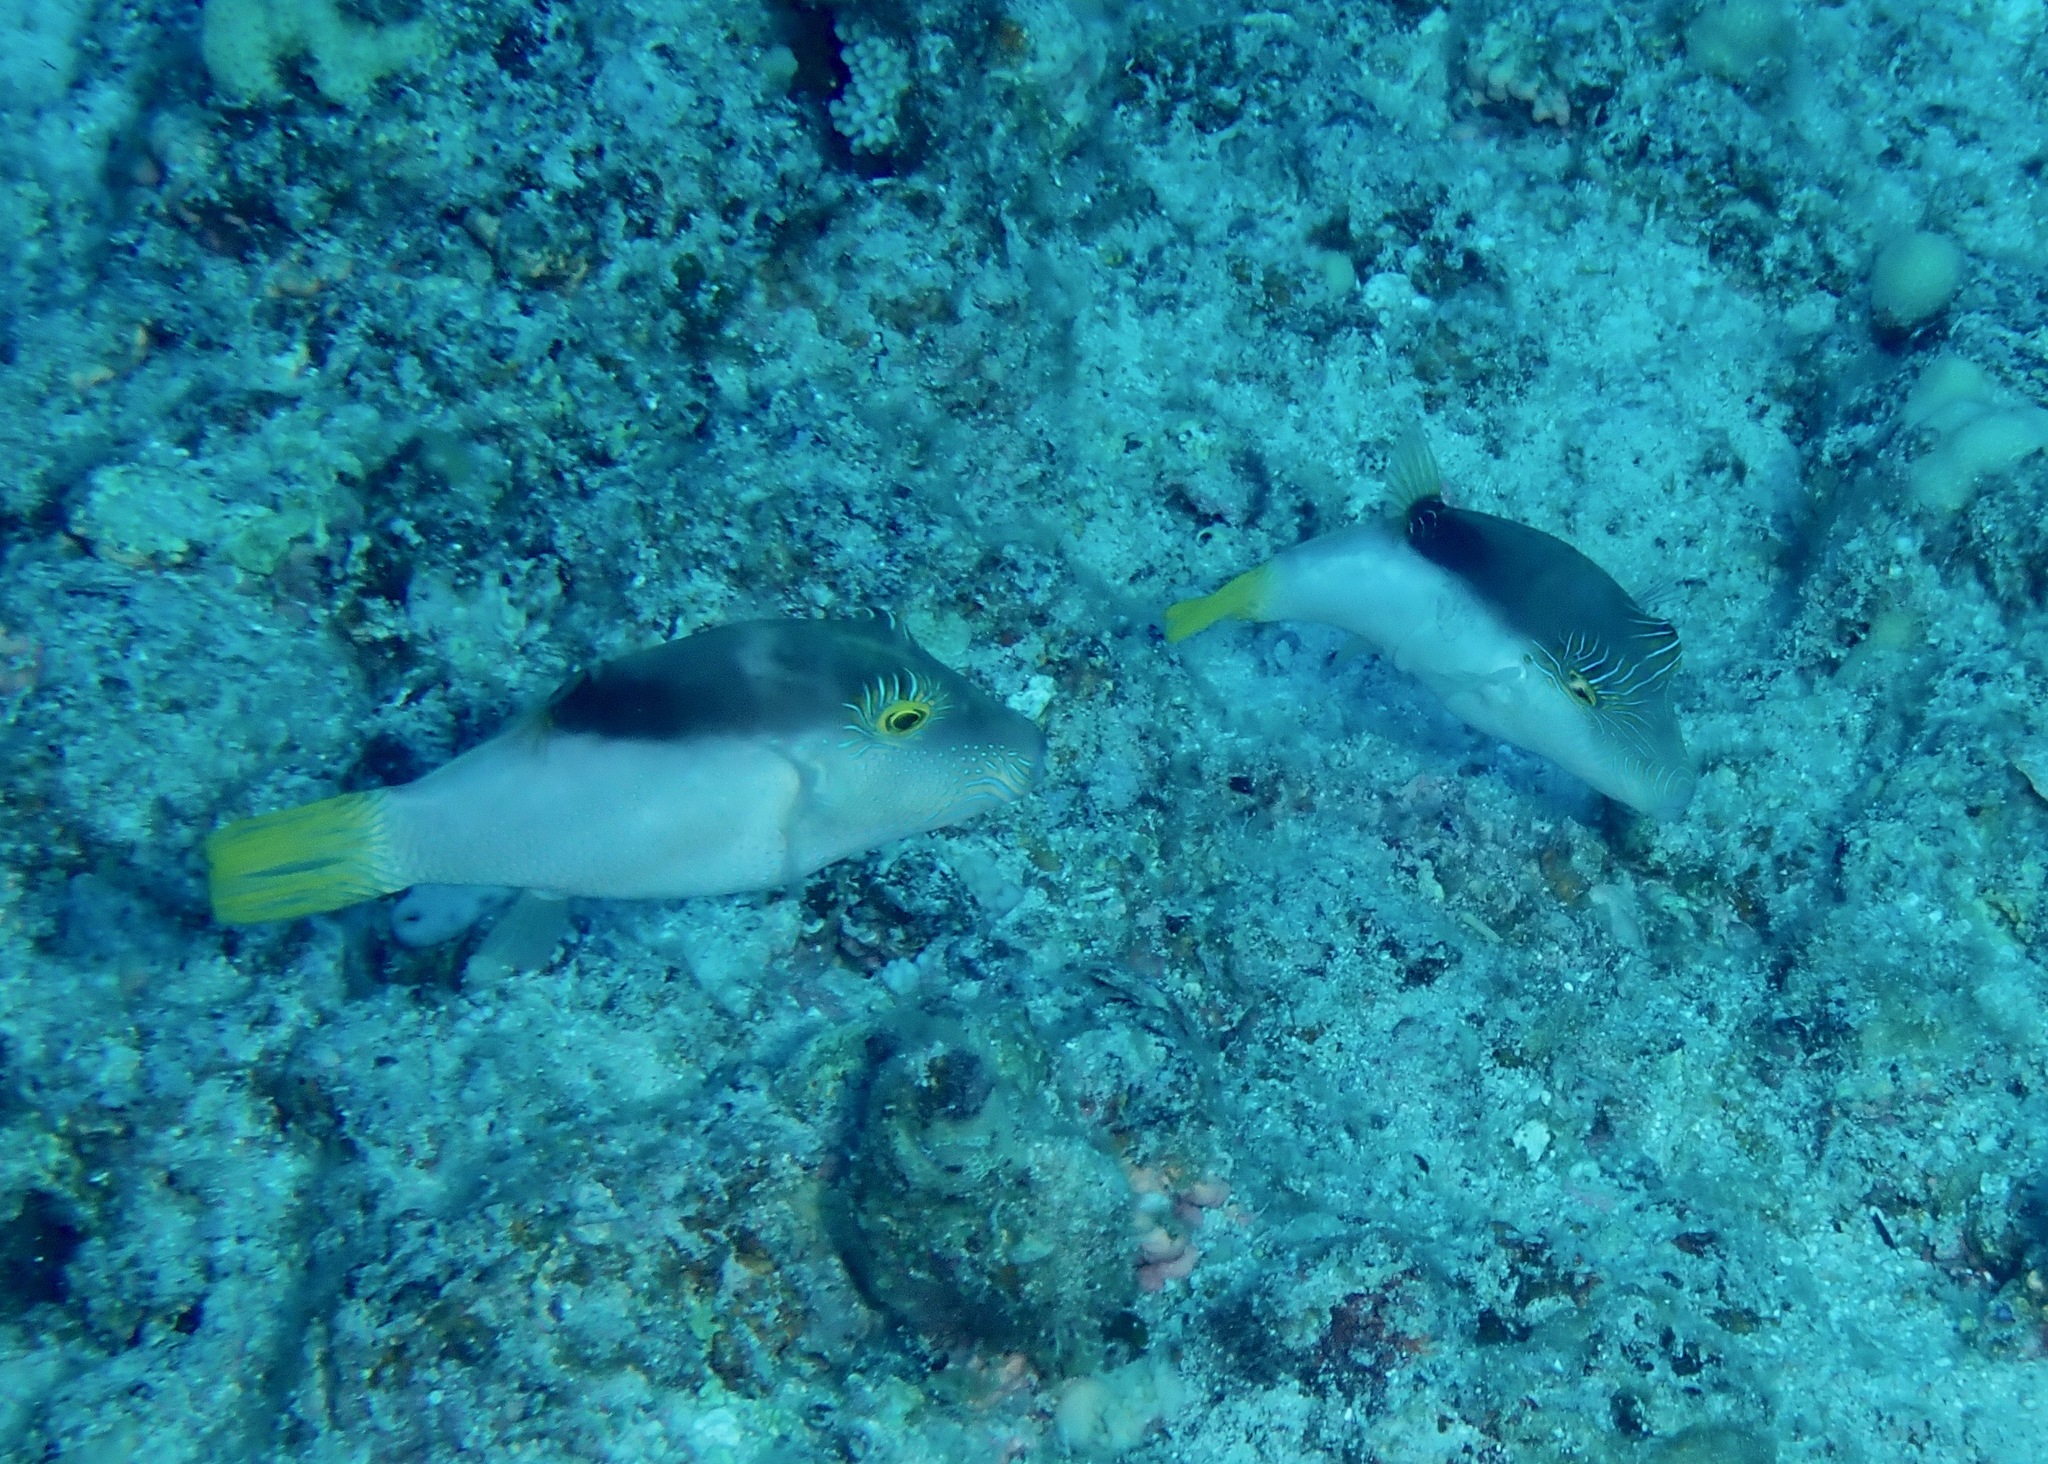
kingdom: Animalia
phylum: Chordata
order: Tetraodontiformes
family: Tetraodontidae
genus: Canthigaster
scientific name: Canthigaster epilampra
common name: Lantern toby
